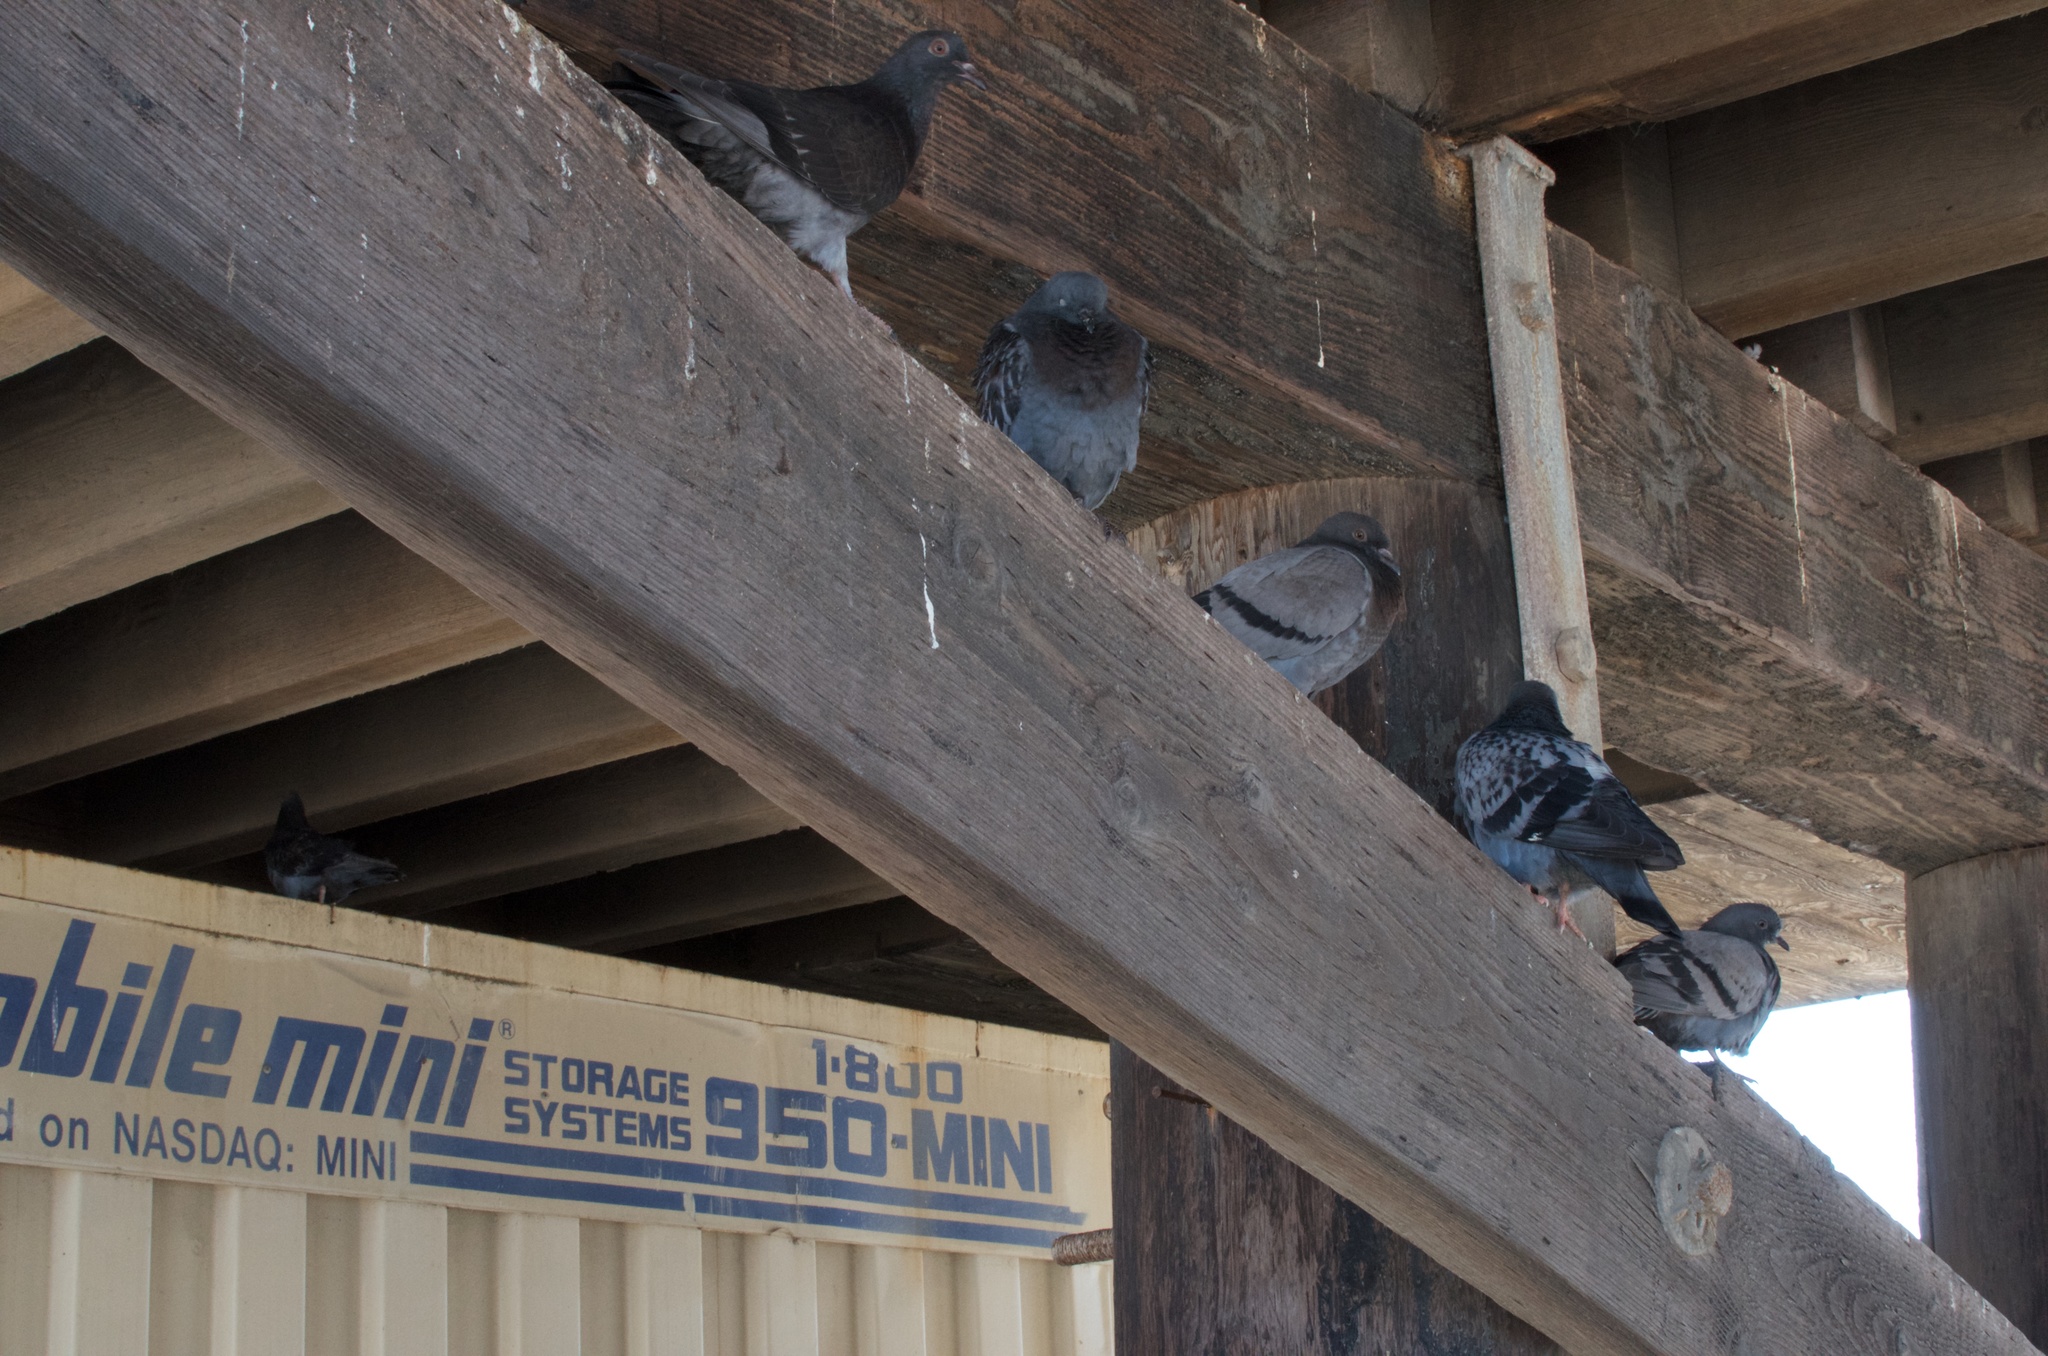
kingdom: Animalia
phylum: Chordata
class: Aves
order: Columbiformes
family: Columbidae
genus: Columba
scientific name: Columba livia
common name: Rock pigeon
